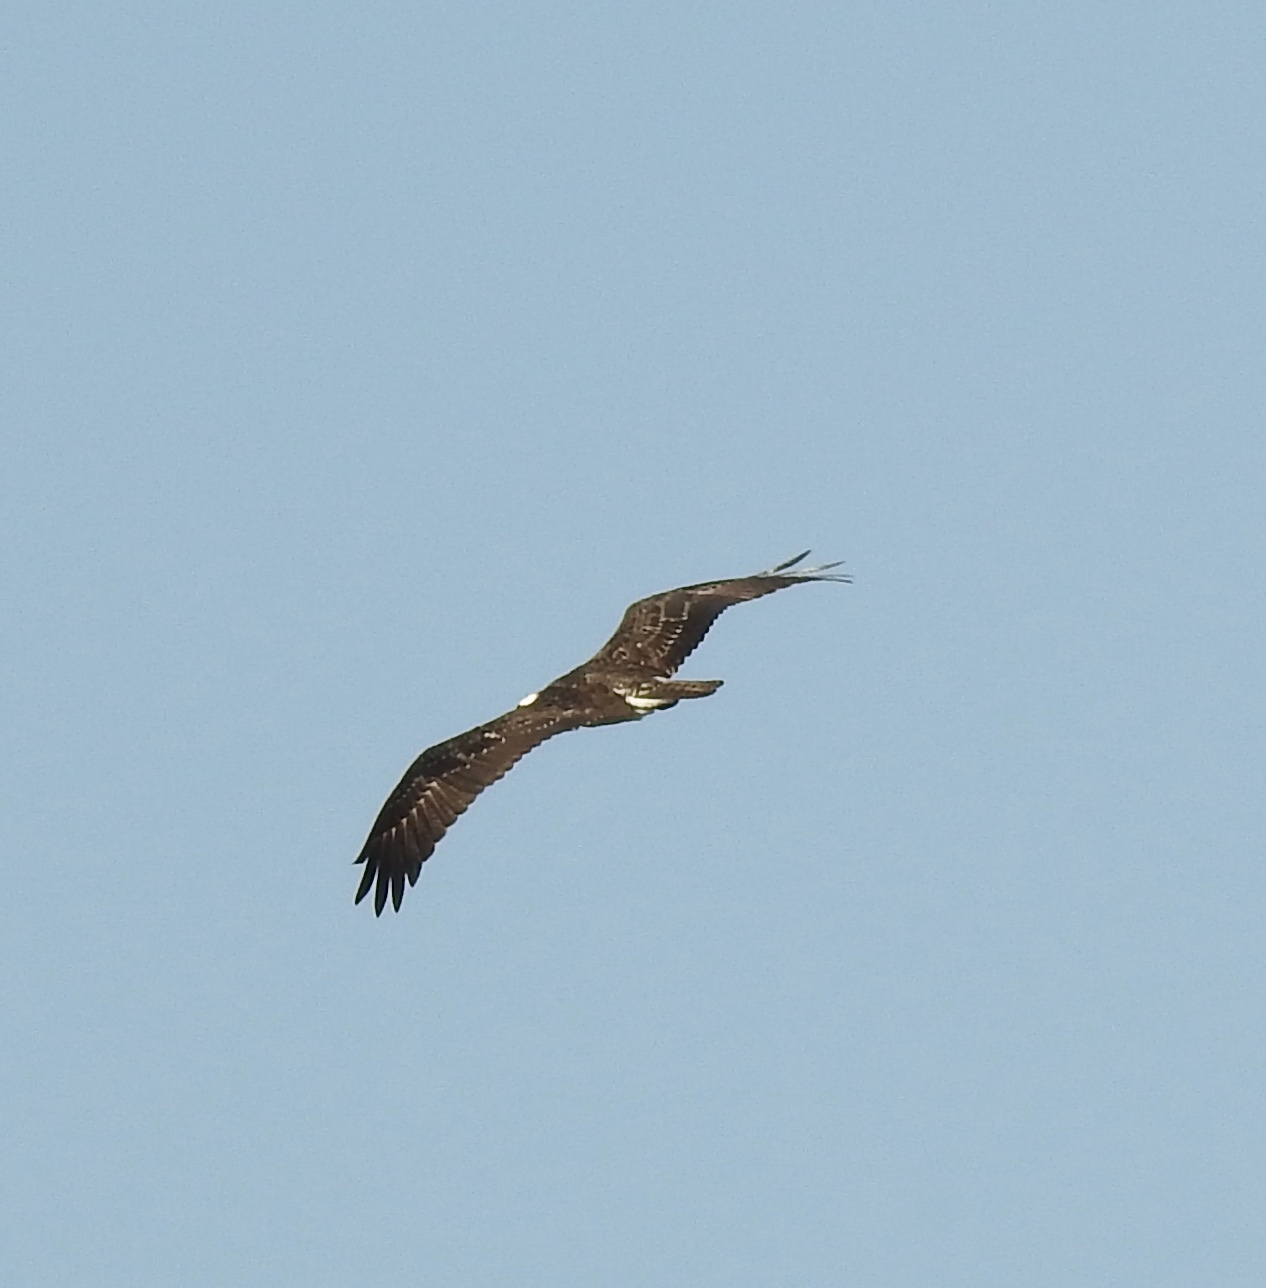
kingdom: Animalia
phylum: Chordata
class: Aves
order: Accipitriformes
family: Pandionidae
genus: Pandion
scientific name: Pandion haliaetus
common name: Osprey
